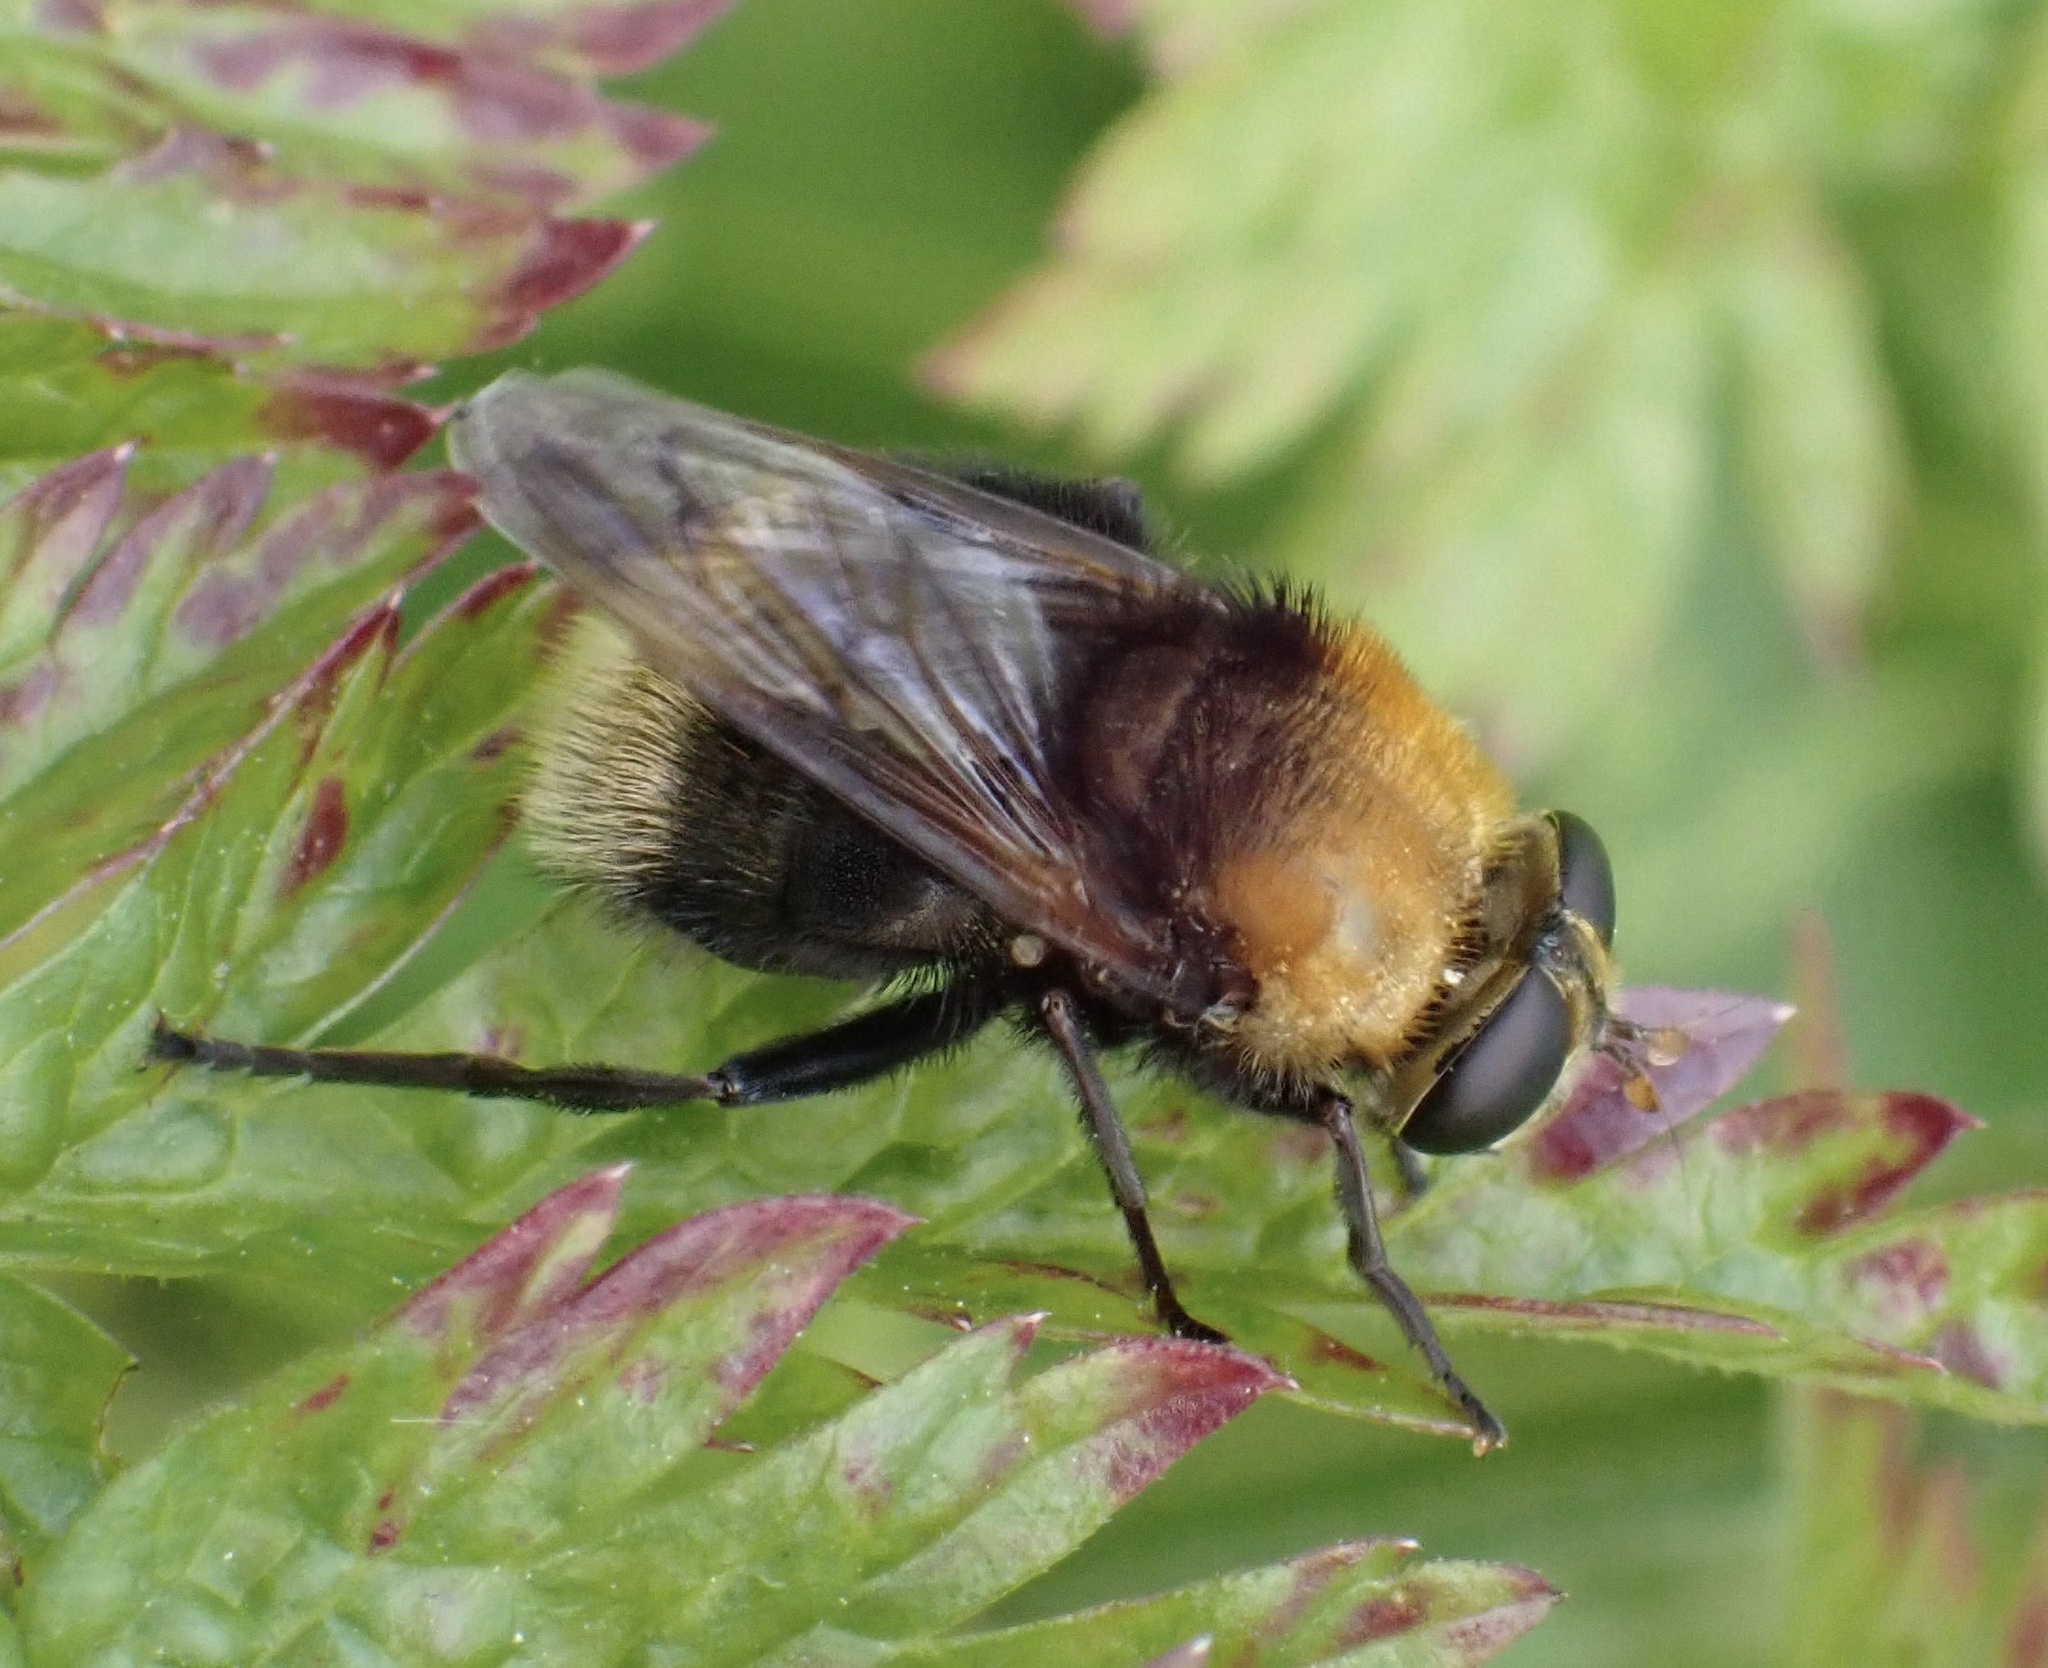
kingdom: Animalia
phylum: Arthropoda
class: Insecta
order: Diptera
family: Syrphidae
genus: Criorhina
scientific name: Criorhina berberina
